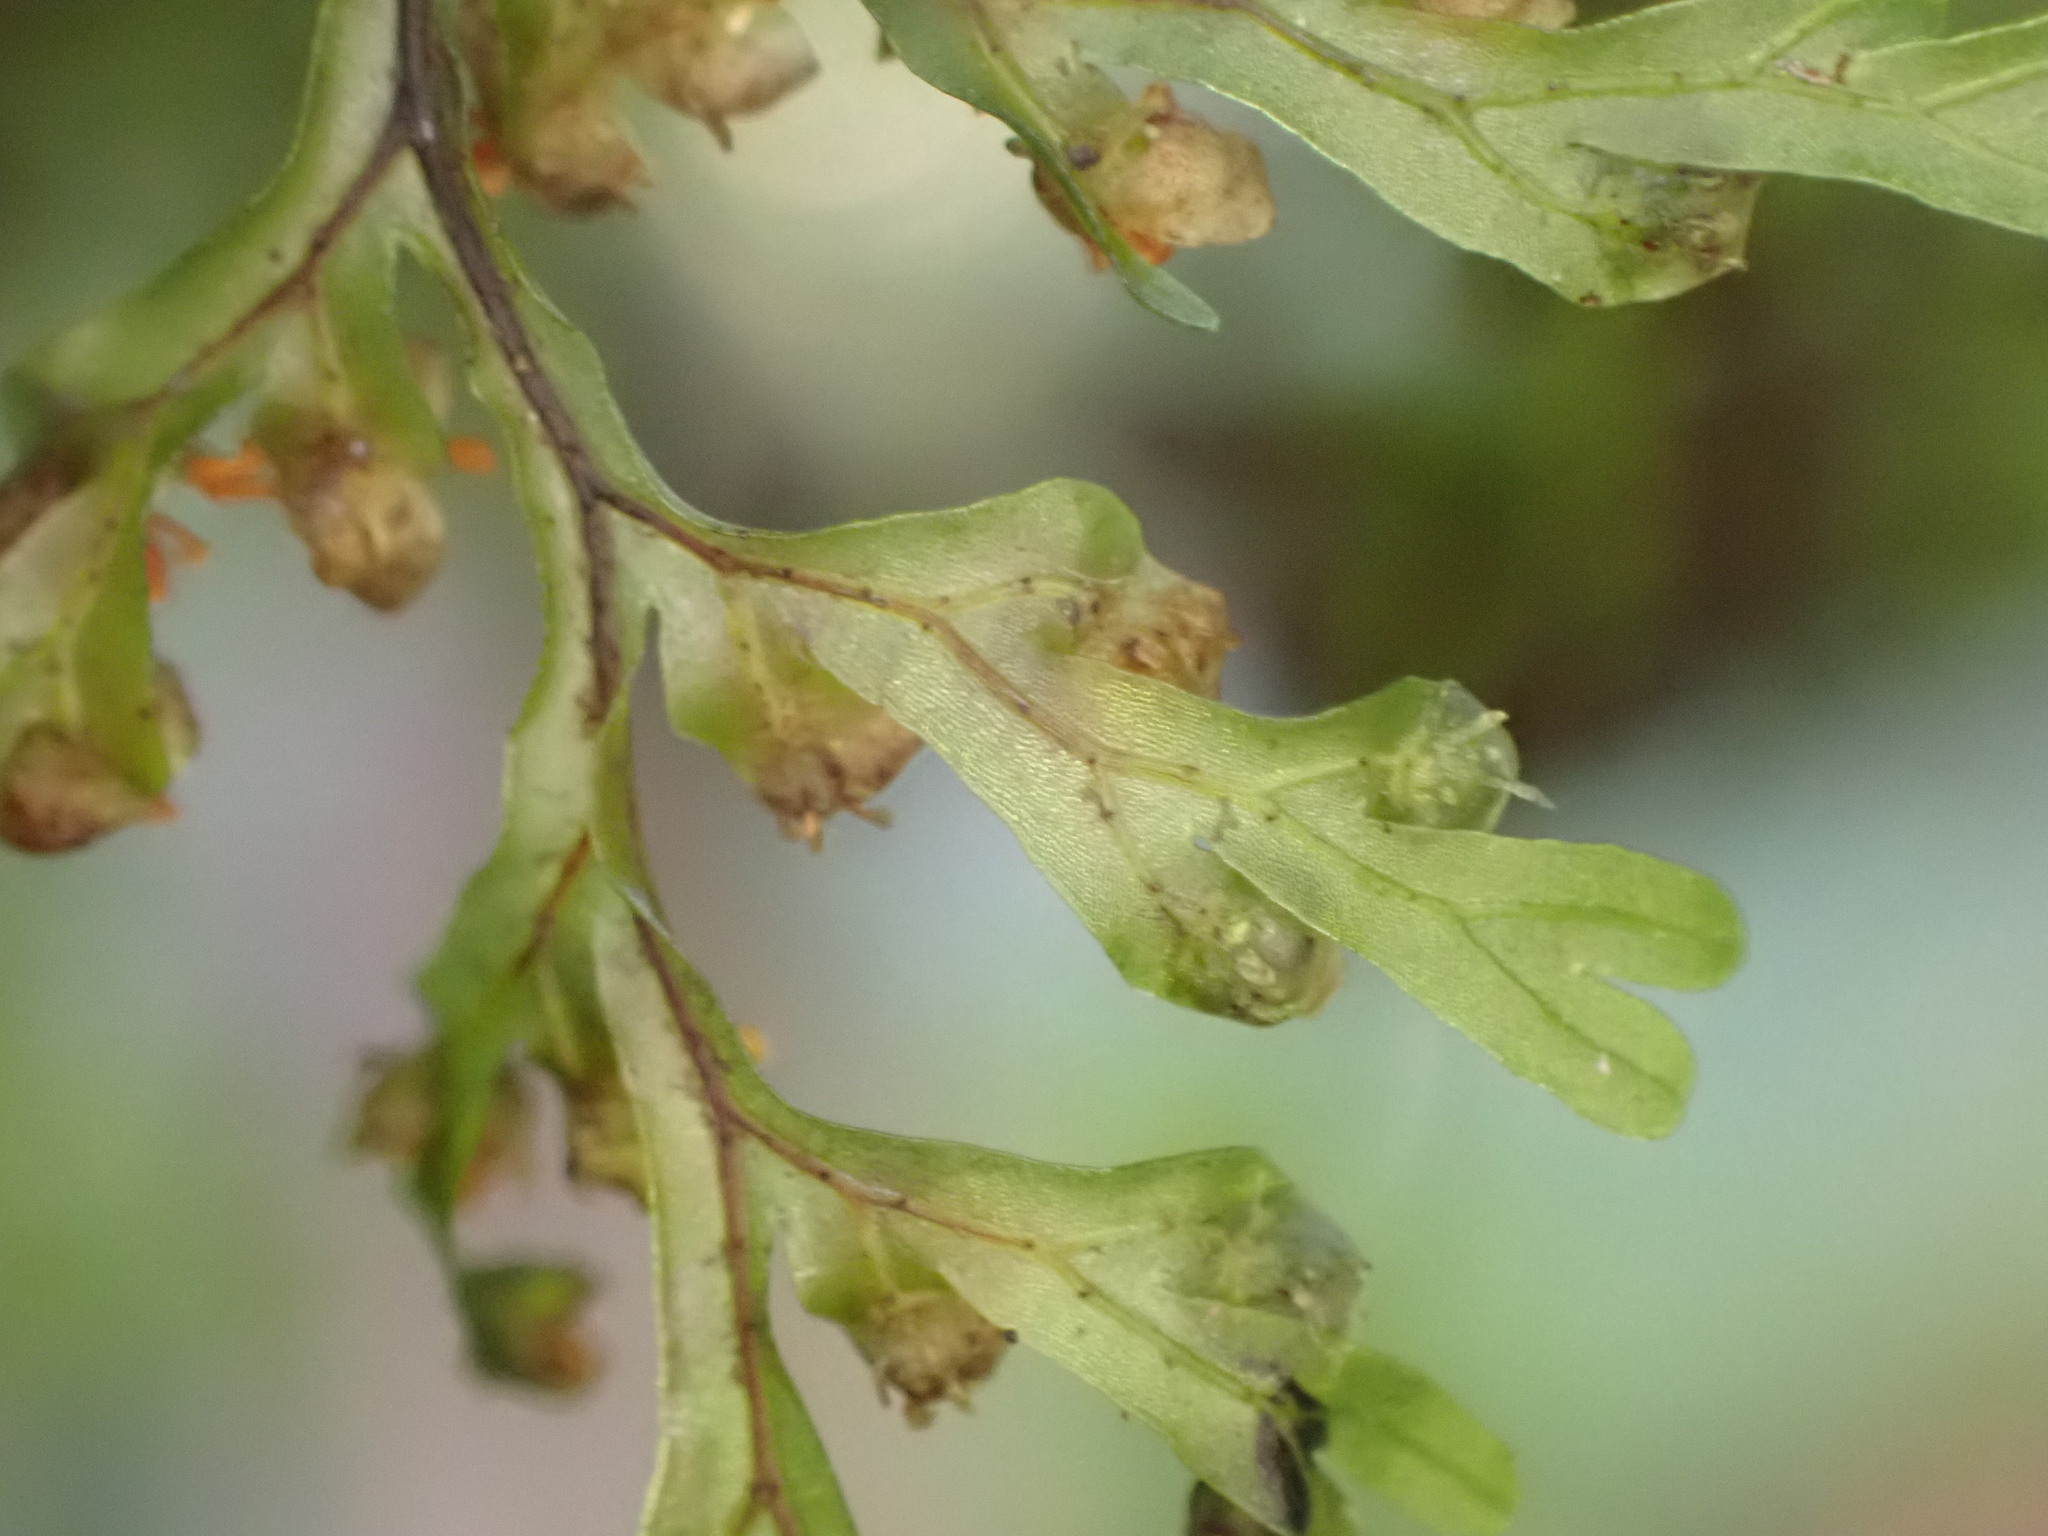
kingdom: Plantae
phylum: Tracheophyta
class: Polypodiopsida
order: Hymenophyllales
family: Hymenophyllaceae
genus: Hymenophyllum
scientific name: Hymenophyllum sanguinolentum
